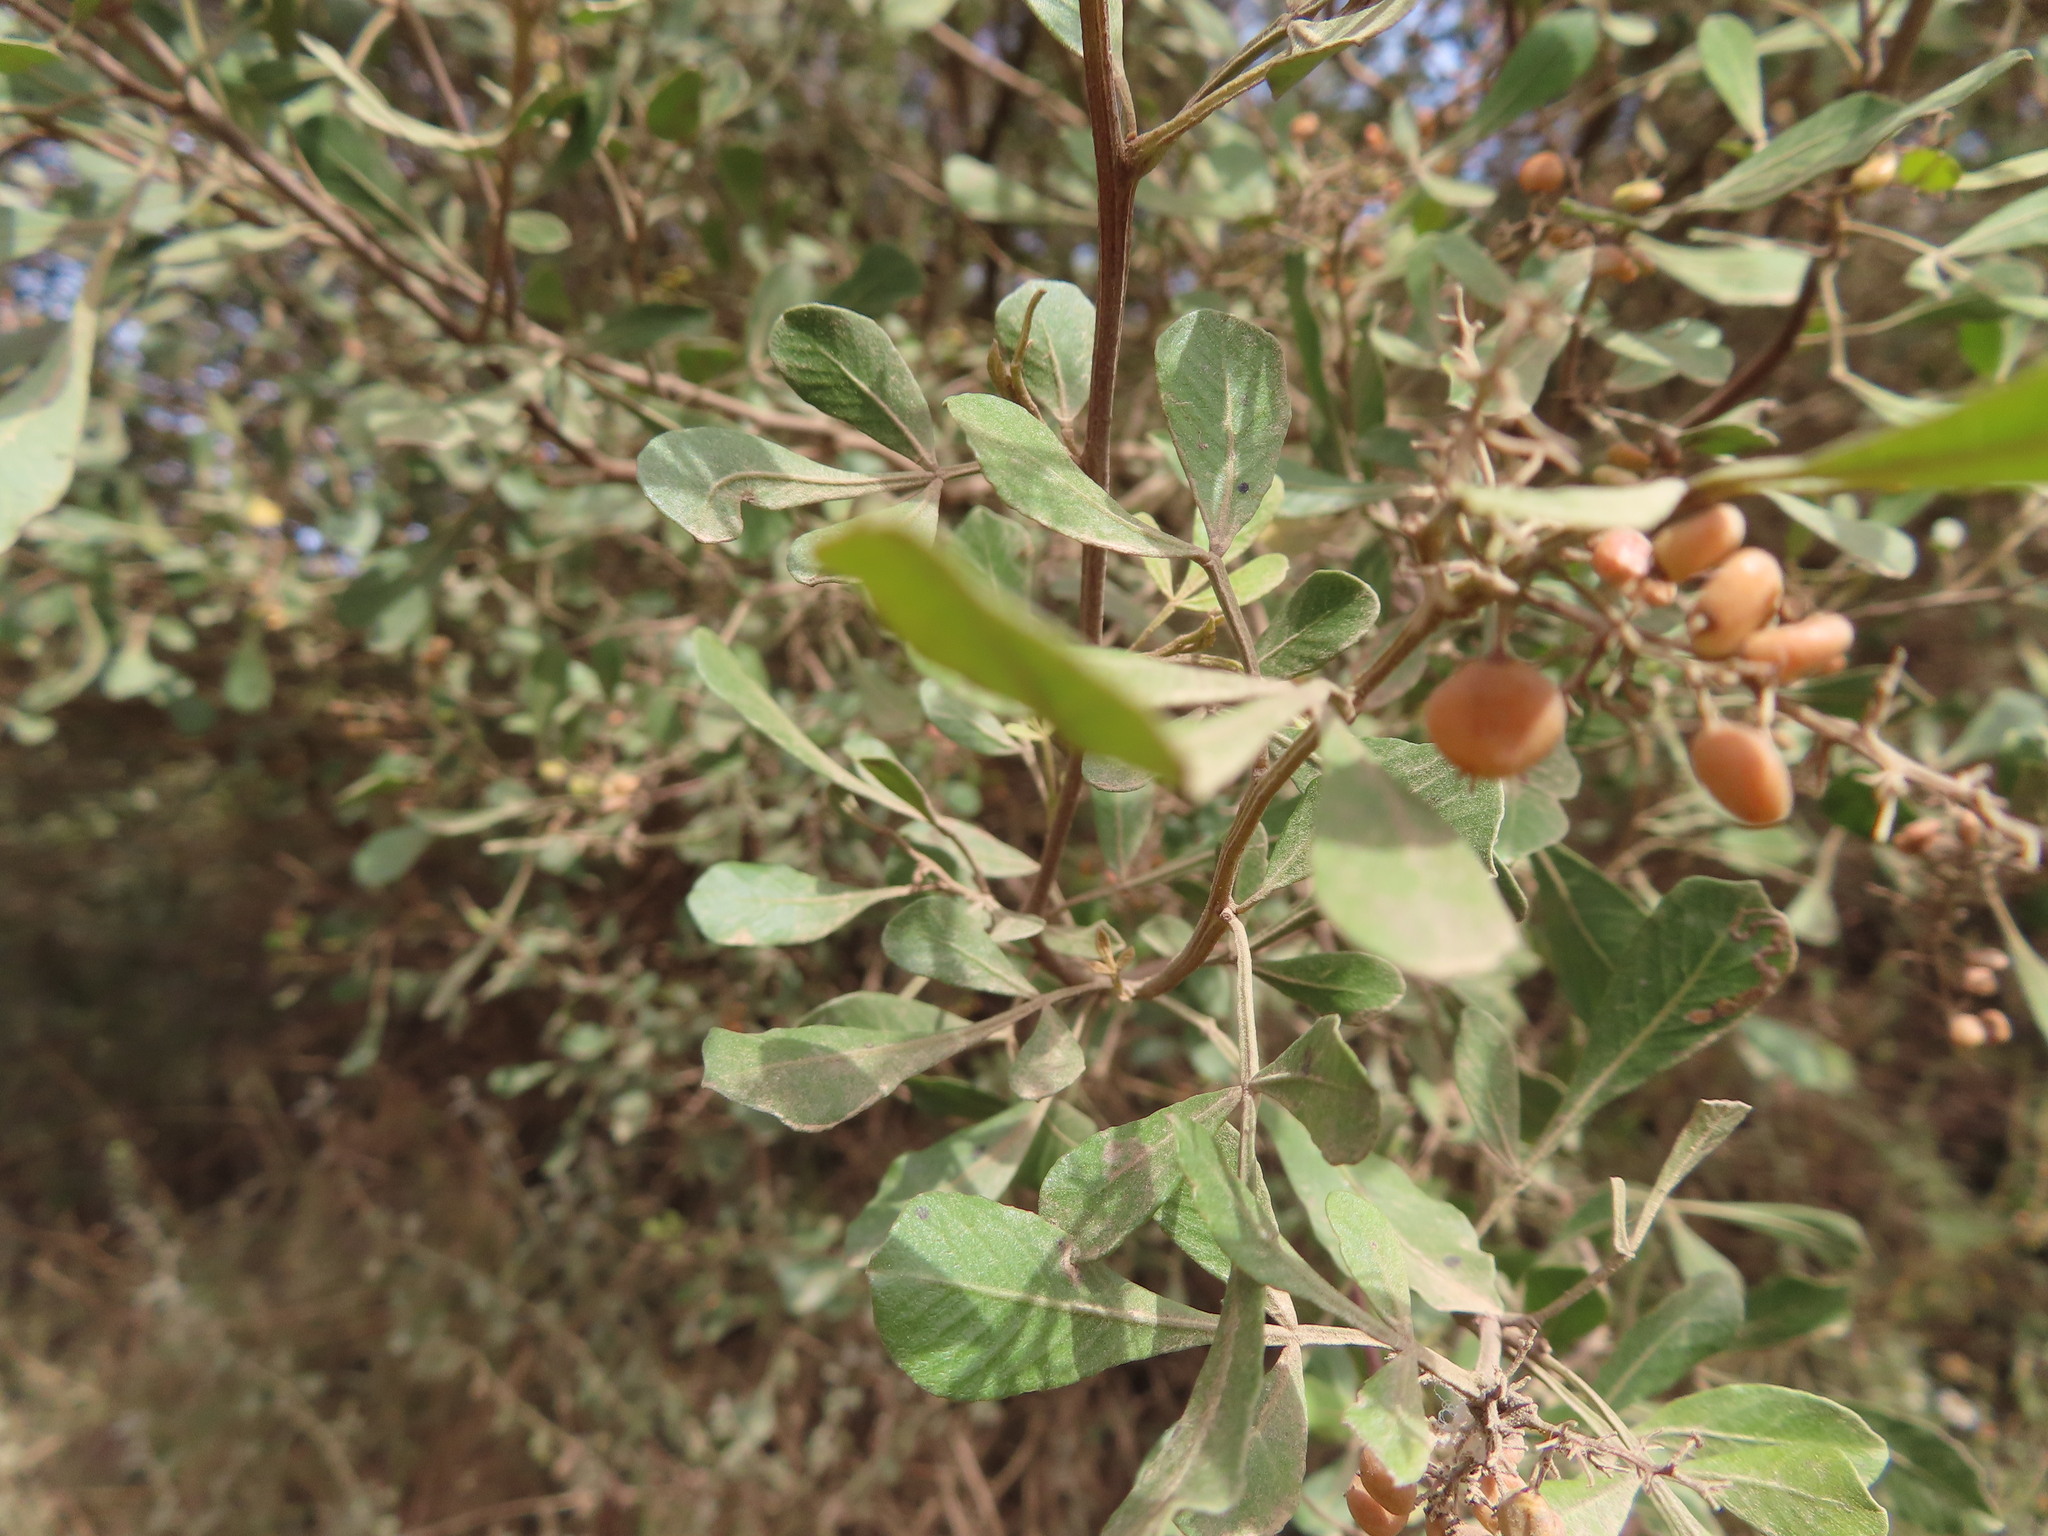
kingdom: Plantae
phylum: Tracheophyta
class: Magnoliopsida
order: Sapindales
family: Anacardiaceae
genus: Searsia
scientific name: Searsia pallens
